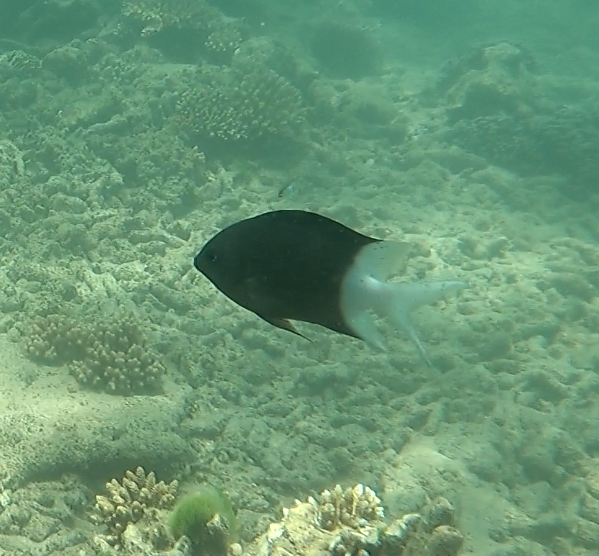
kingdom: Animalia
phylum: Chordata
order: Perciformes
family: Pomacentridae
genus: Acanthochromis
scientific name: Acanthochromis polyacanthus
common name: Spiny chromis
